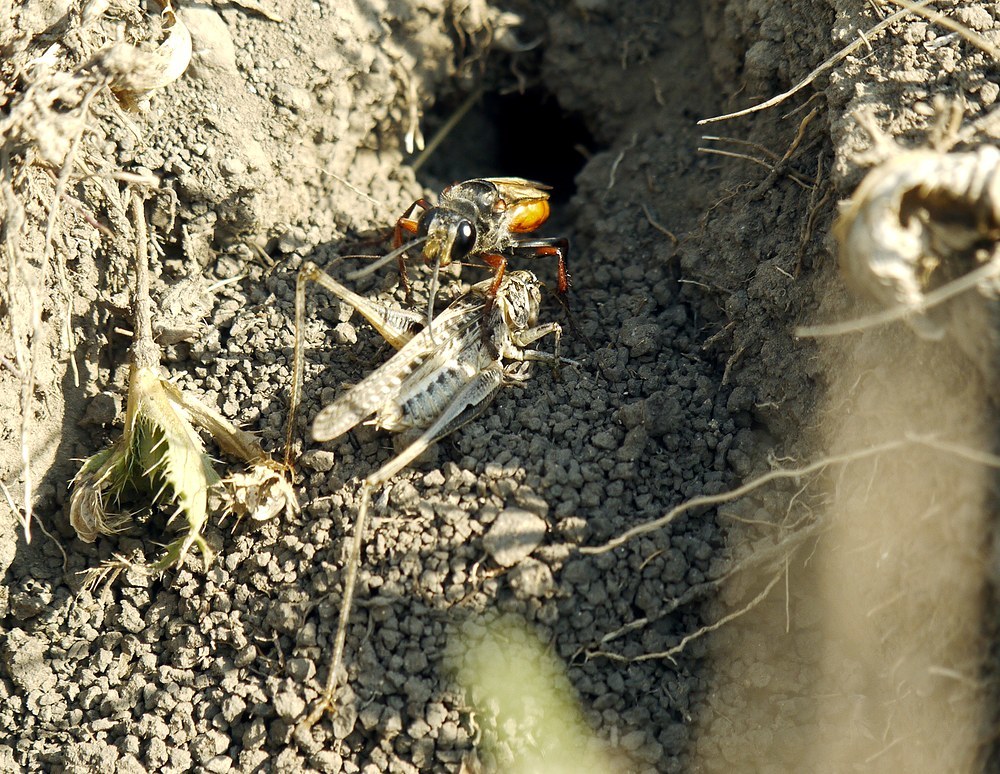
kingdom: Animalia
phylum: Arthropoda
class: Insecta
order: Hymenoptera
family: Sphecidae
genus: Sphex
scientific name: Sphex flavipennis
